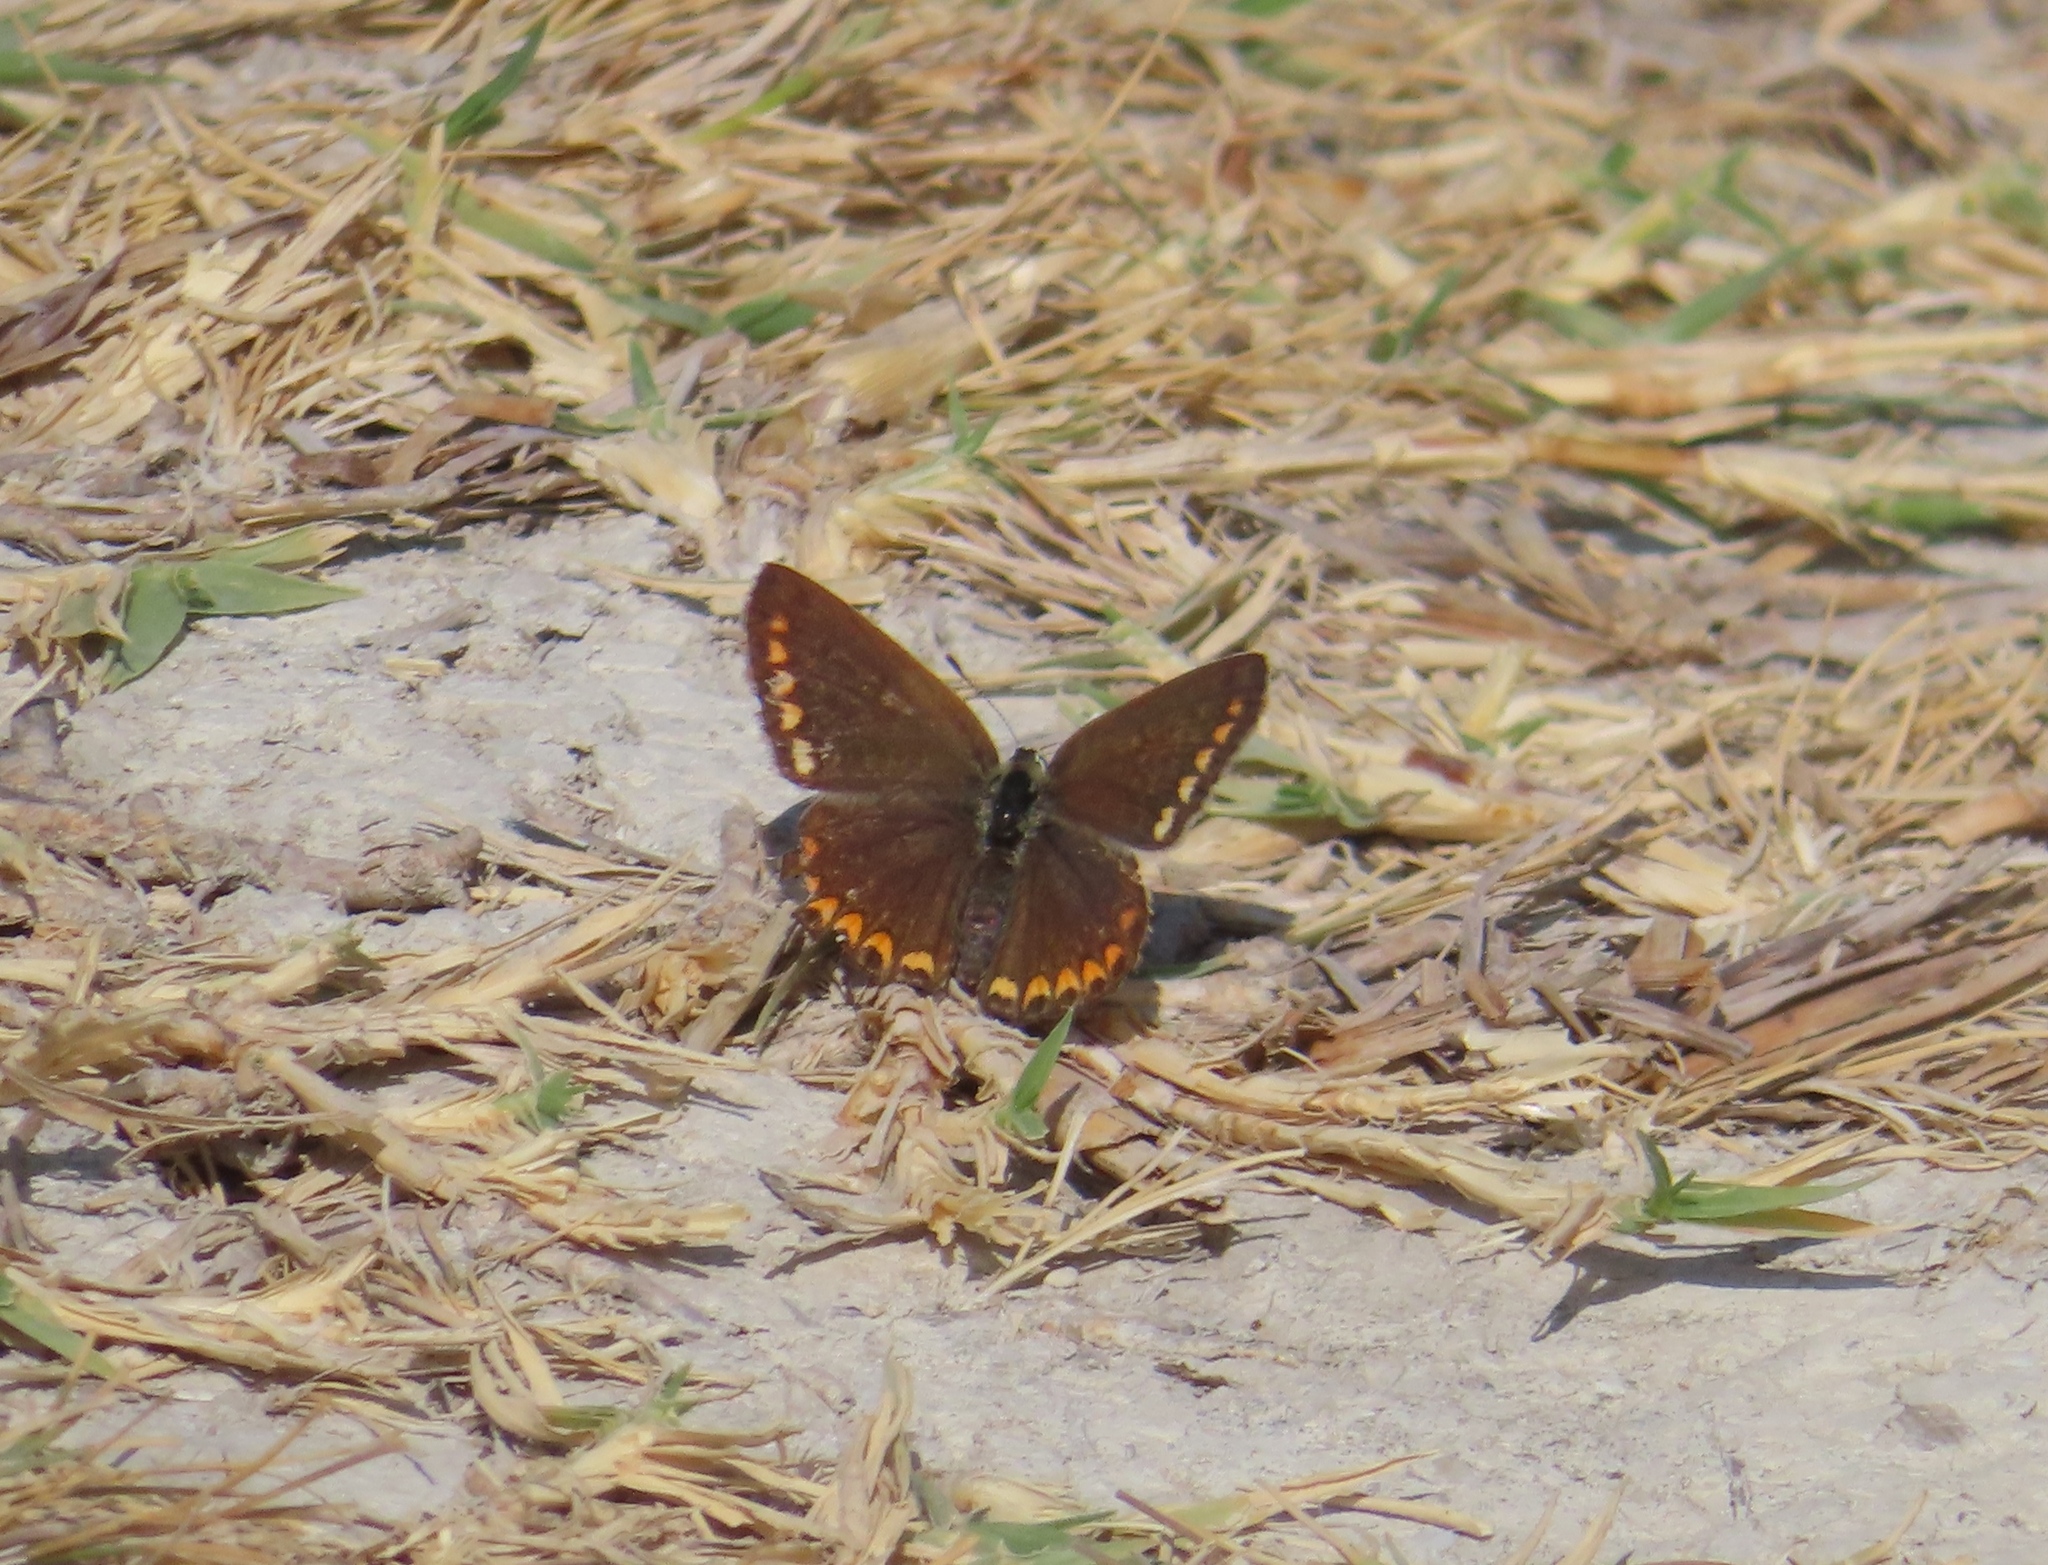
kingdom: Animalia
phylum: Arthropoda
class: Insecta
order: Lepidoptera
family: Lycaenidae
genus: Polyommatus
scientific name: Polyommatus icarus
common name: Common blue
